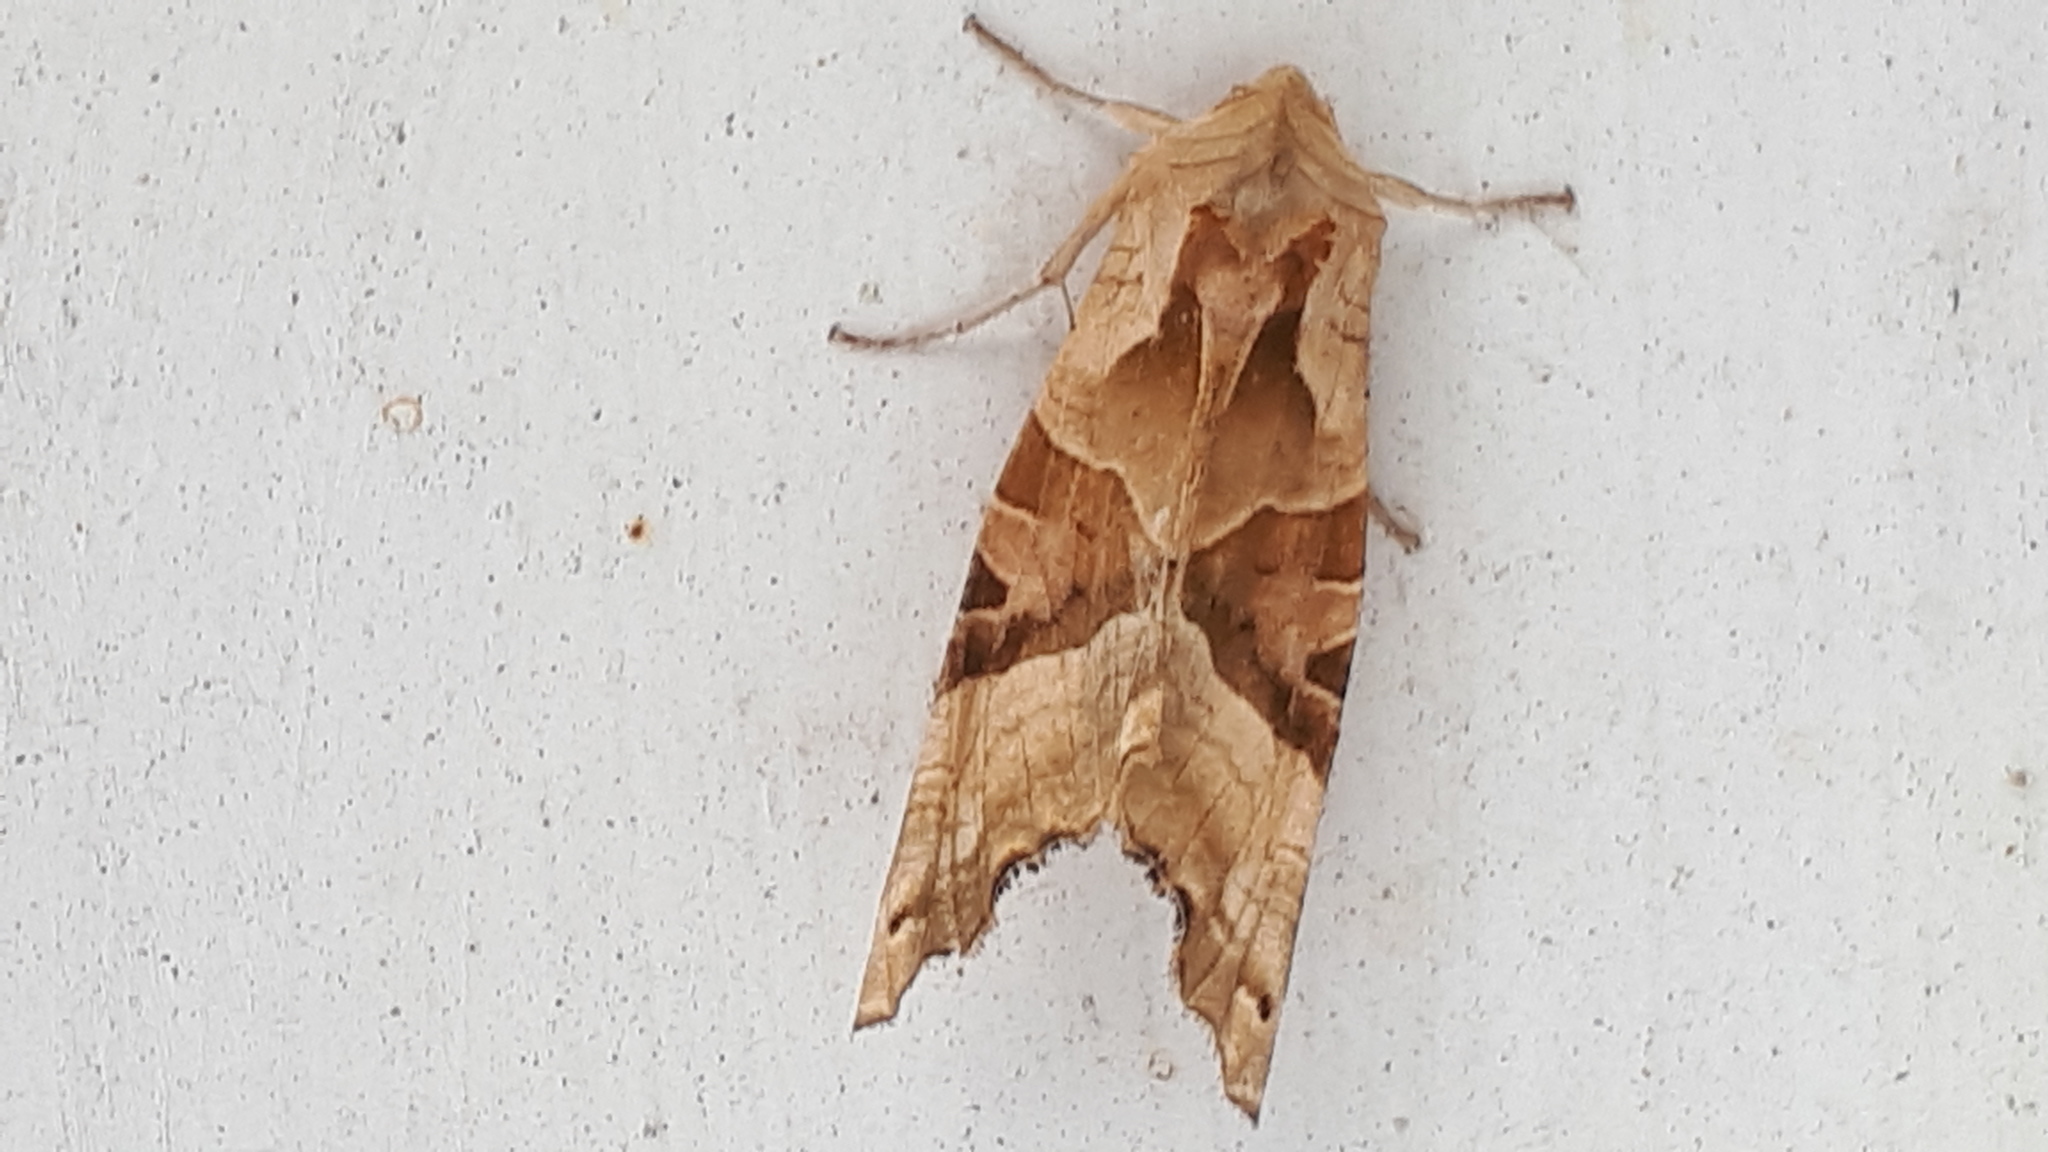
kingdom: Animalia
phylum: Arthropoda
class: Insecta
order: Lepidoptera
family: Noctuidae
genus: Phlogophora
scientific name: Phlogophora meticulosa
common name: Angle shades
